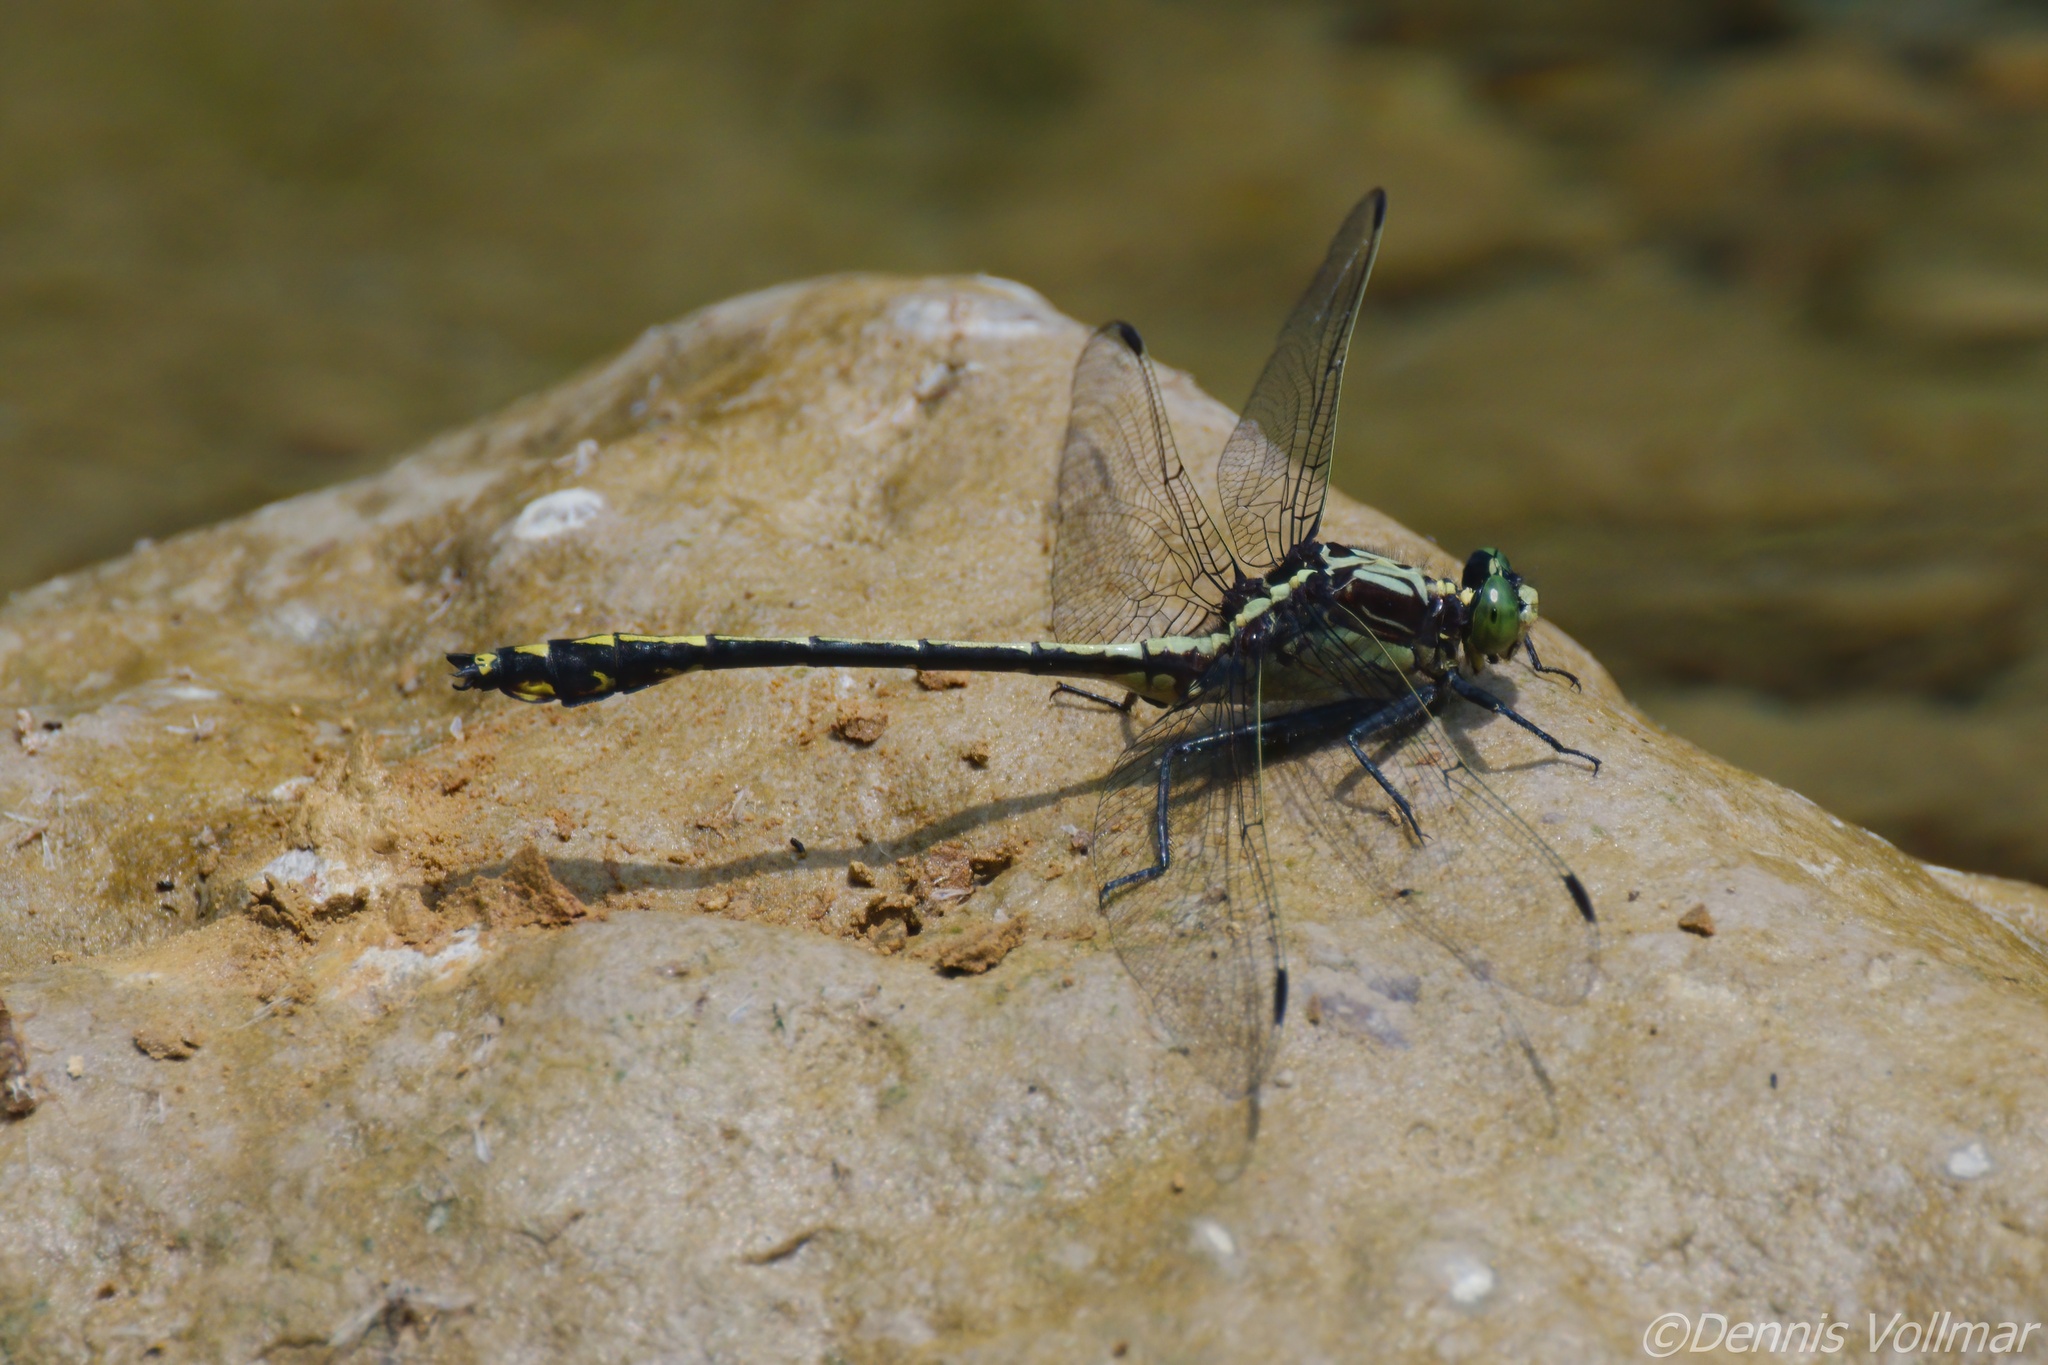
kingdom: Animalia
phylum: Arthropoda
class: Insecta
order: Odonata
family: Gomphidae
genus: Dromogomphus
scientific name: Dromogomphus spinosus
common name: Black-shouldered spinyleg
